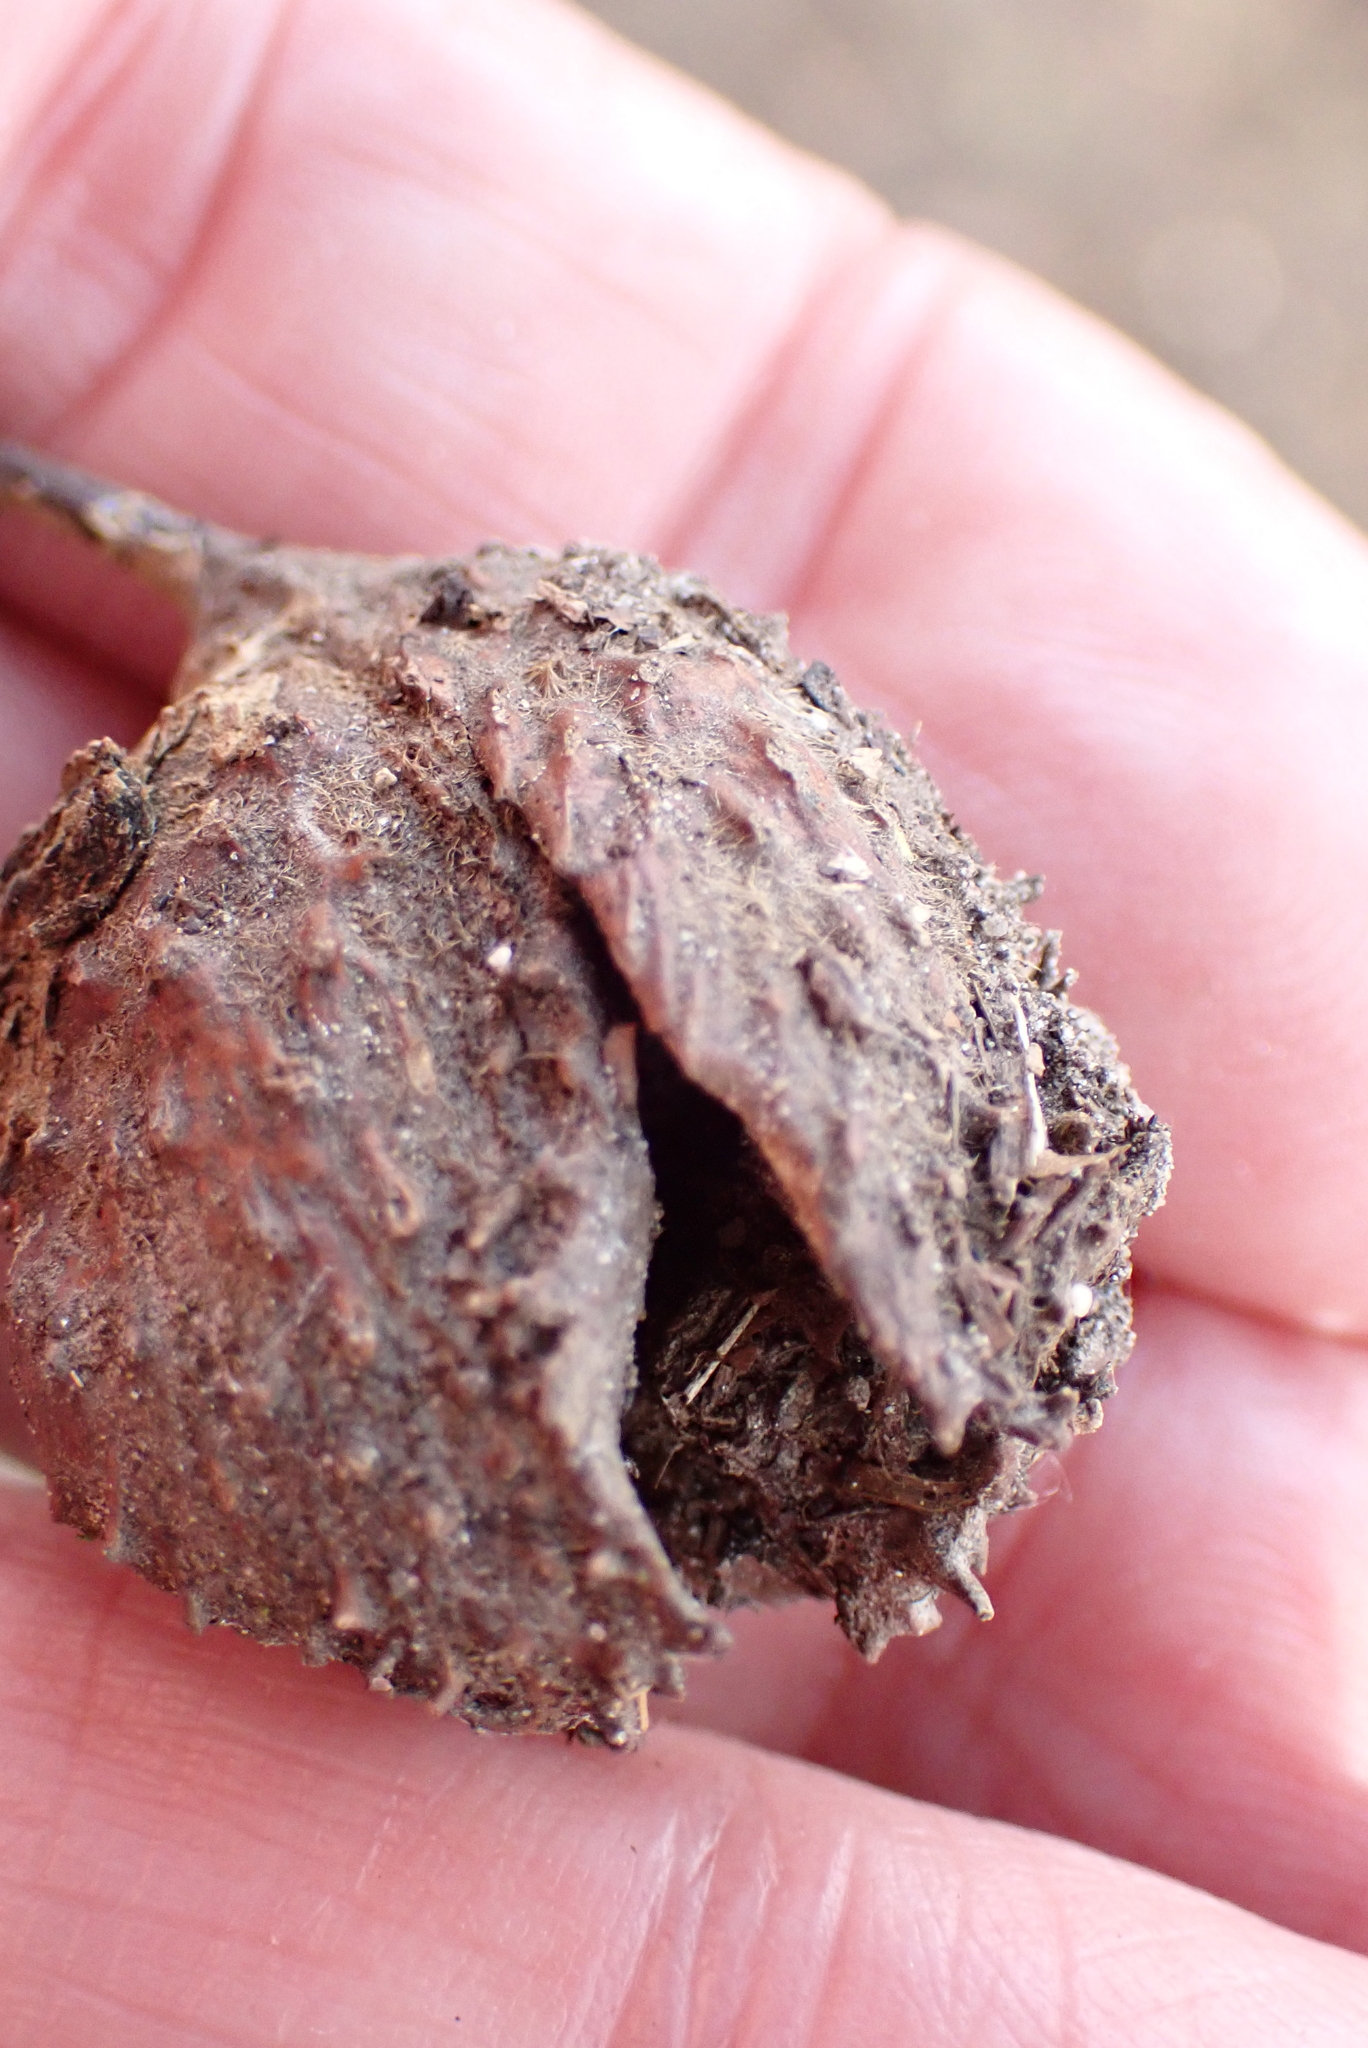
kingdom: Plantae
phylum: Tracheophyta
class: Magnoliopsida
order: Fagales
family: Fagaceae
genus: Fagus
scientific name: Fagus sylvatica
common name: Beech
